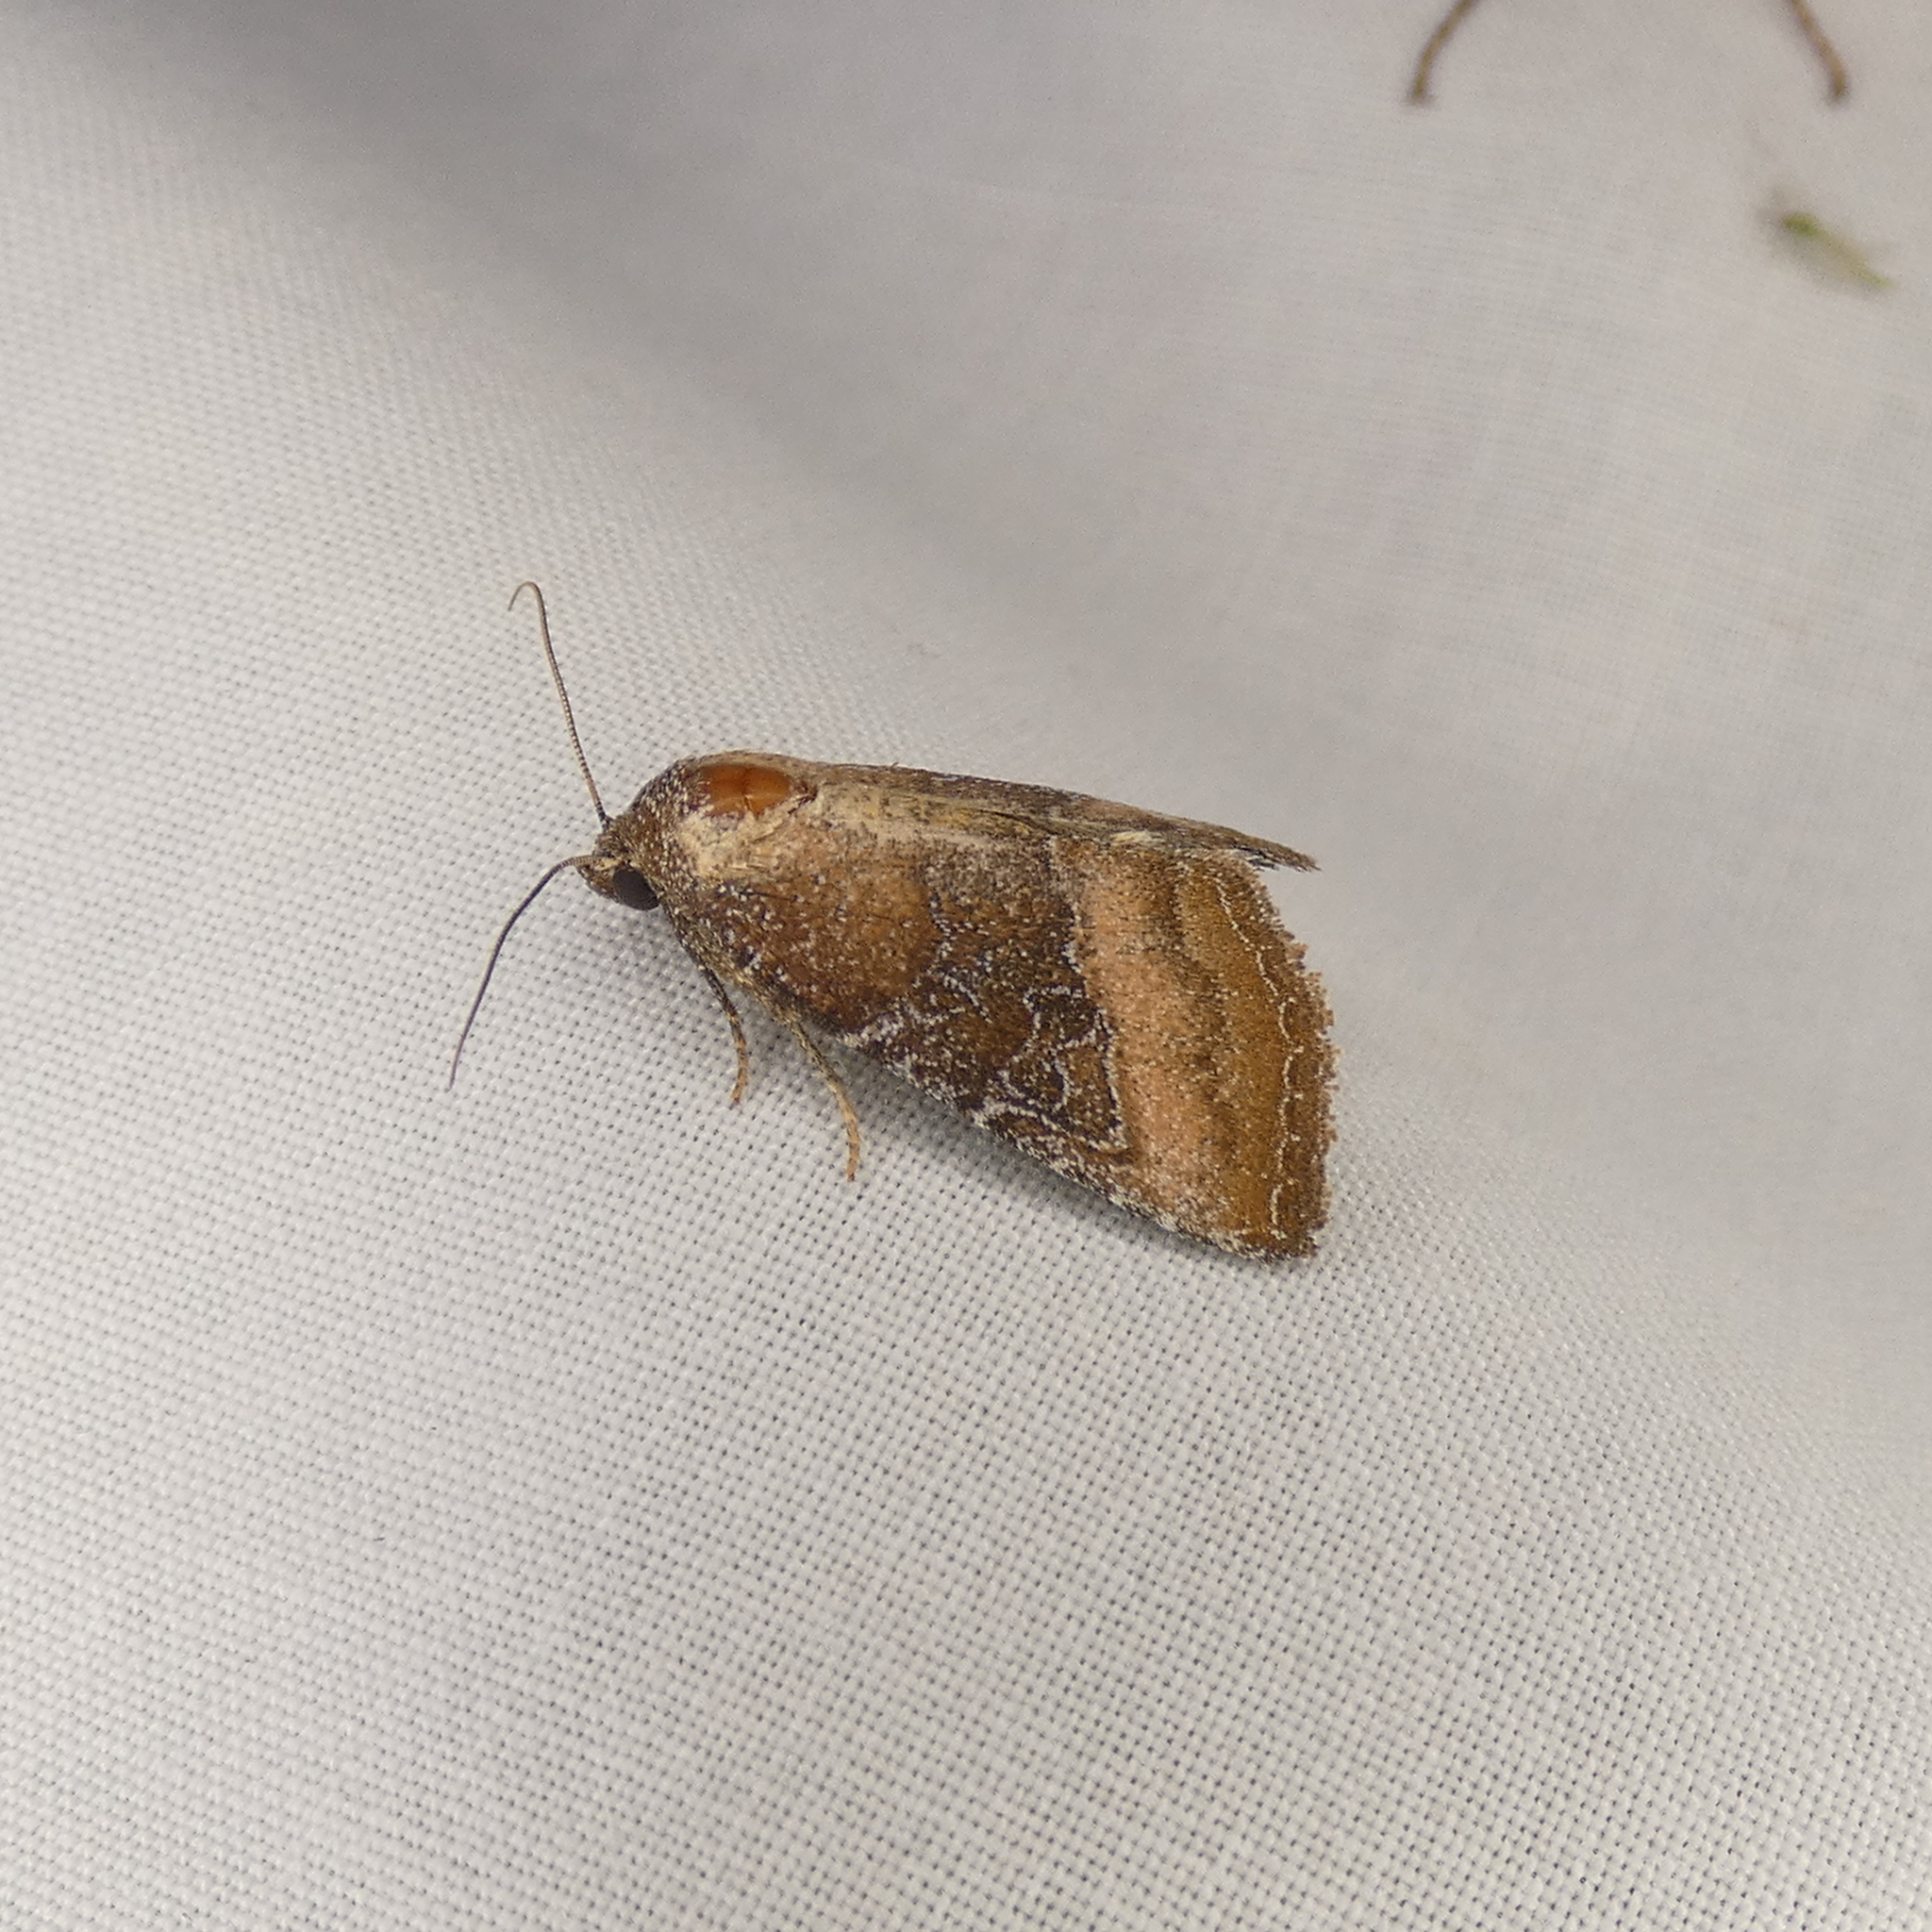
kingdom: Animalia
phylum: Arthropoda
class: Insecta
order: Lepidoptera
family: Noctuidae
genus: Ogdoconta
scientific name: Ogdoconta cinereola
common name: Common pinkband
